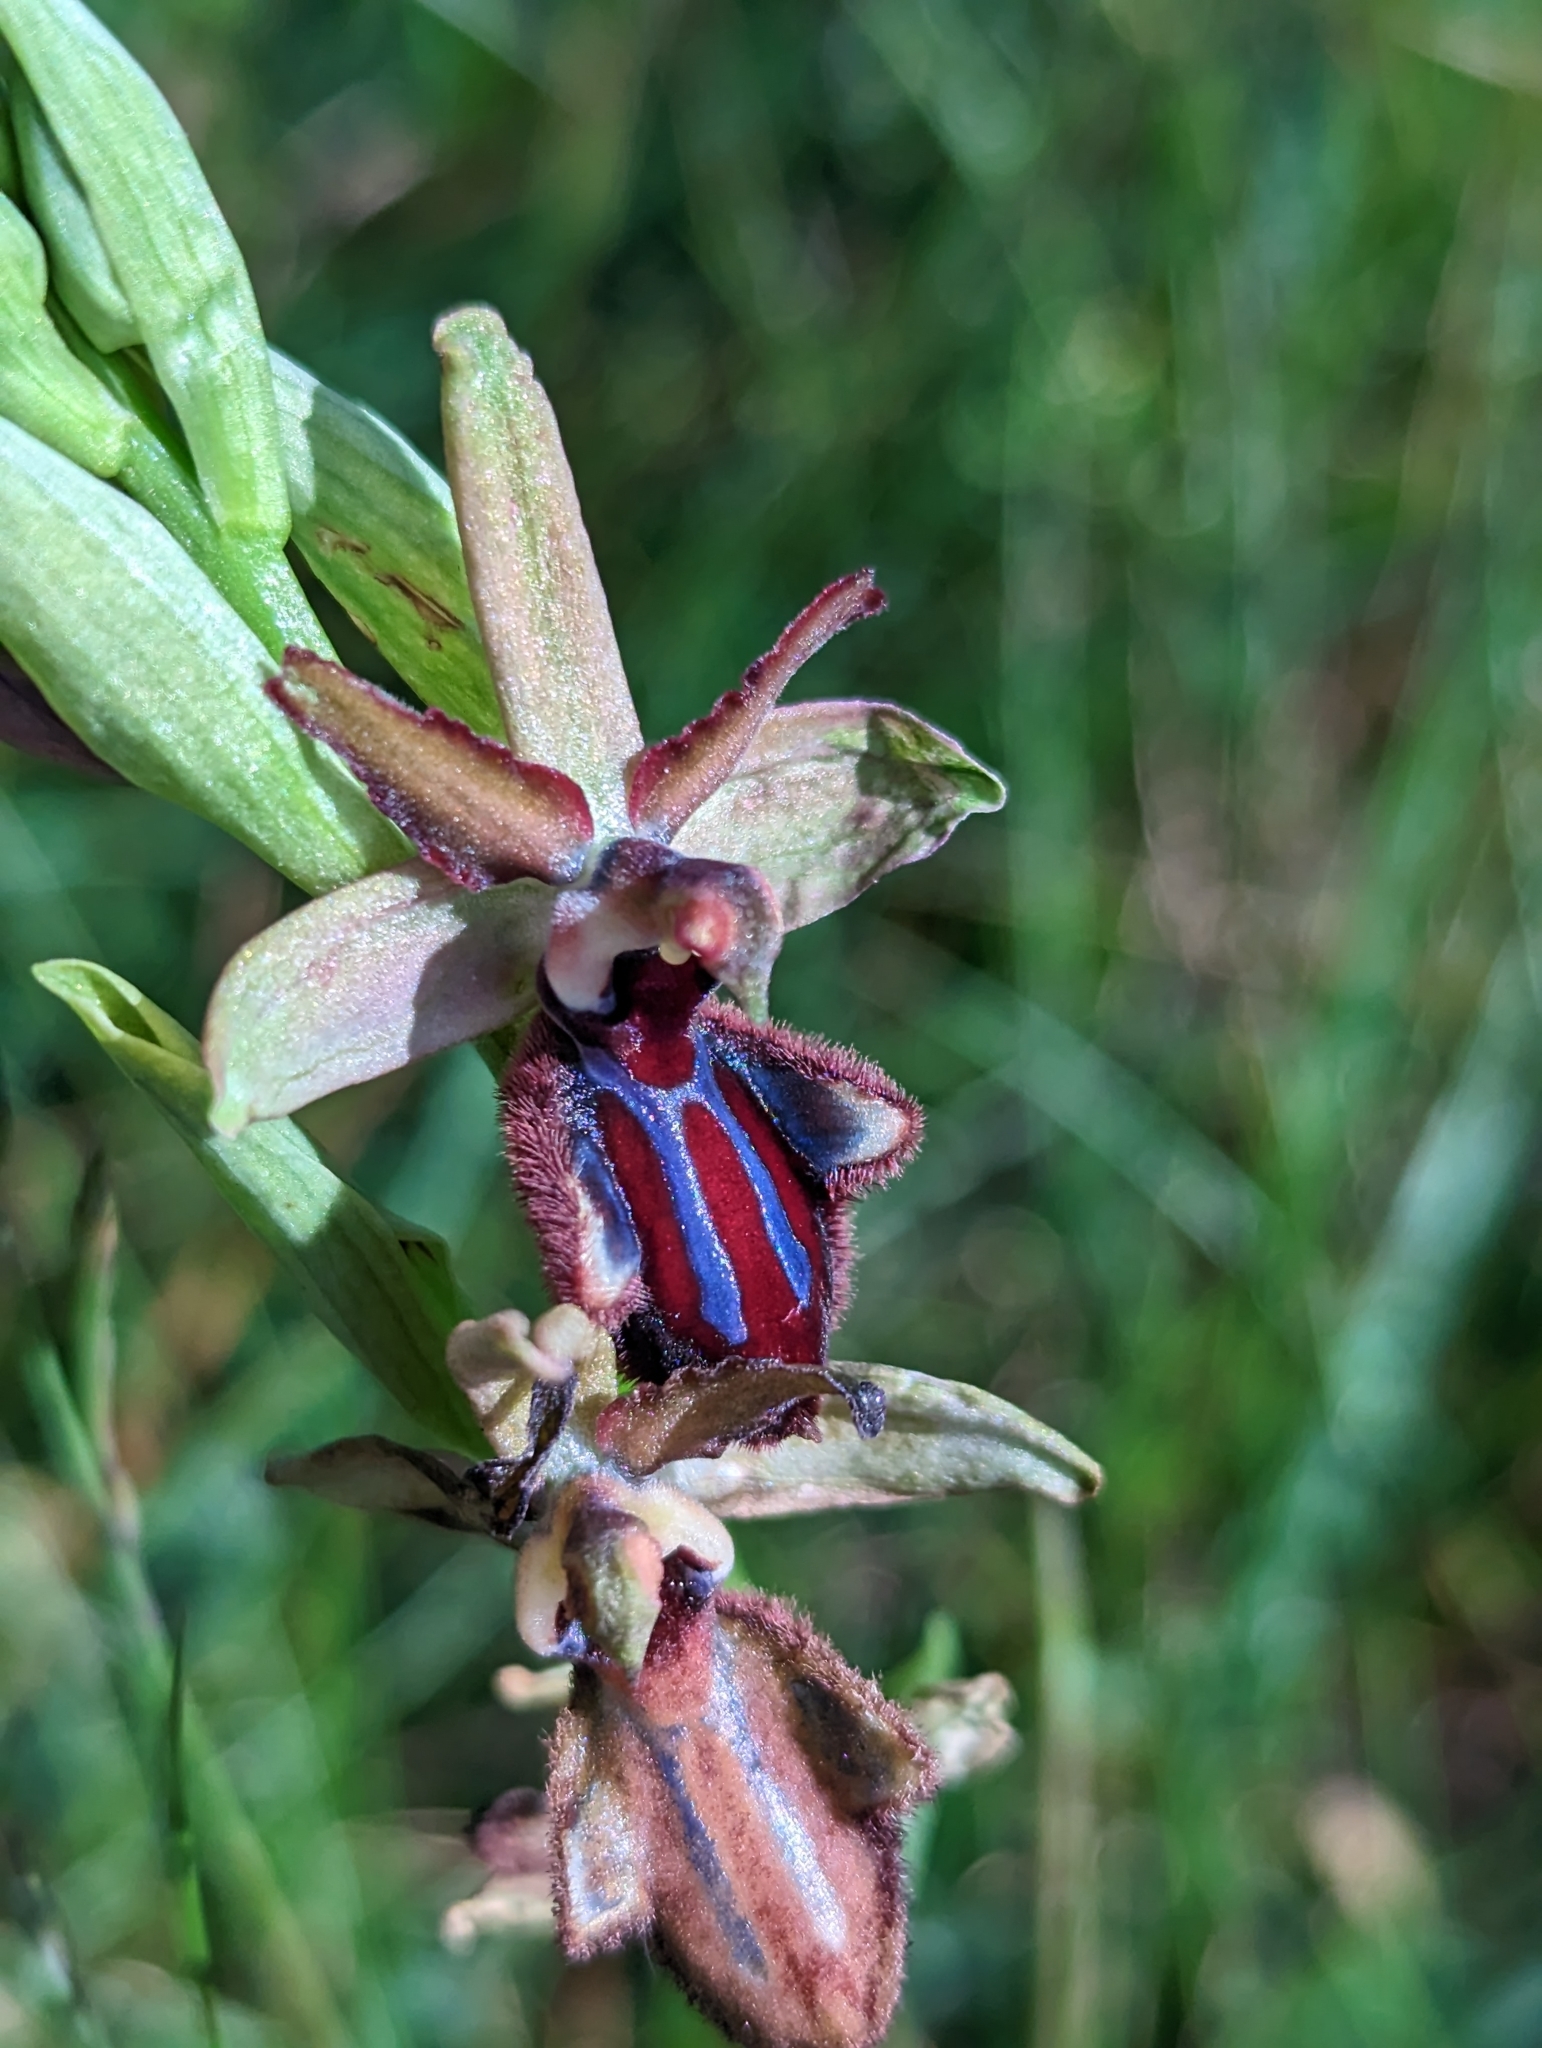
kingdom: Plantae
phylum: Tracheophyta
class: Liliopsida
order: Asparagales
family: Orchidaceae
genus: Ophrys
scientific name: Ophrys sphegodes
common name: Early spider-orchid
